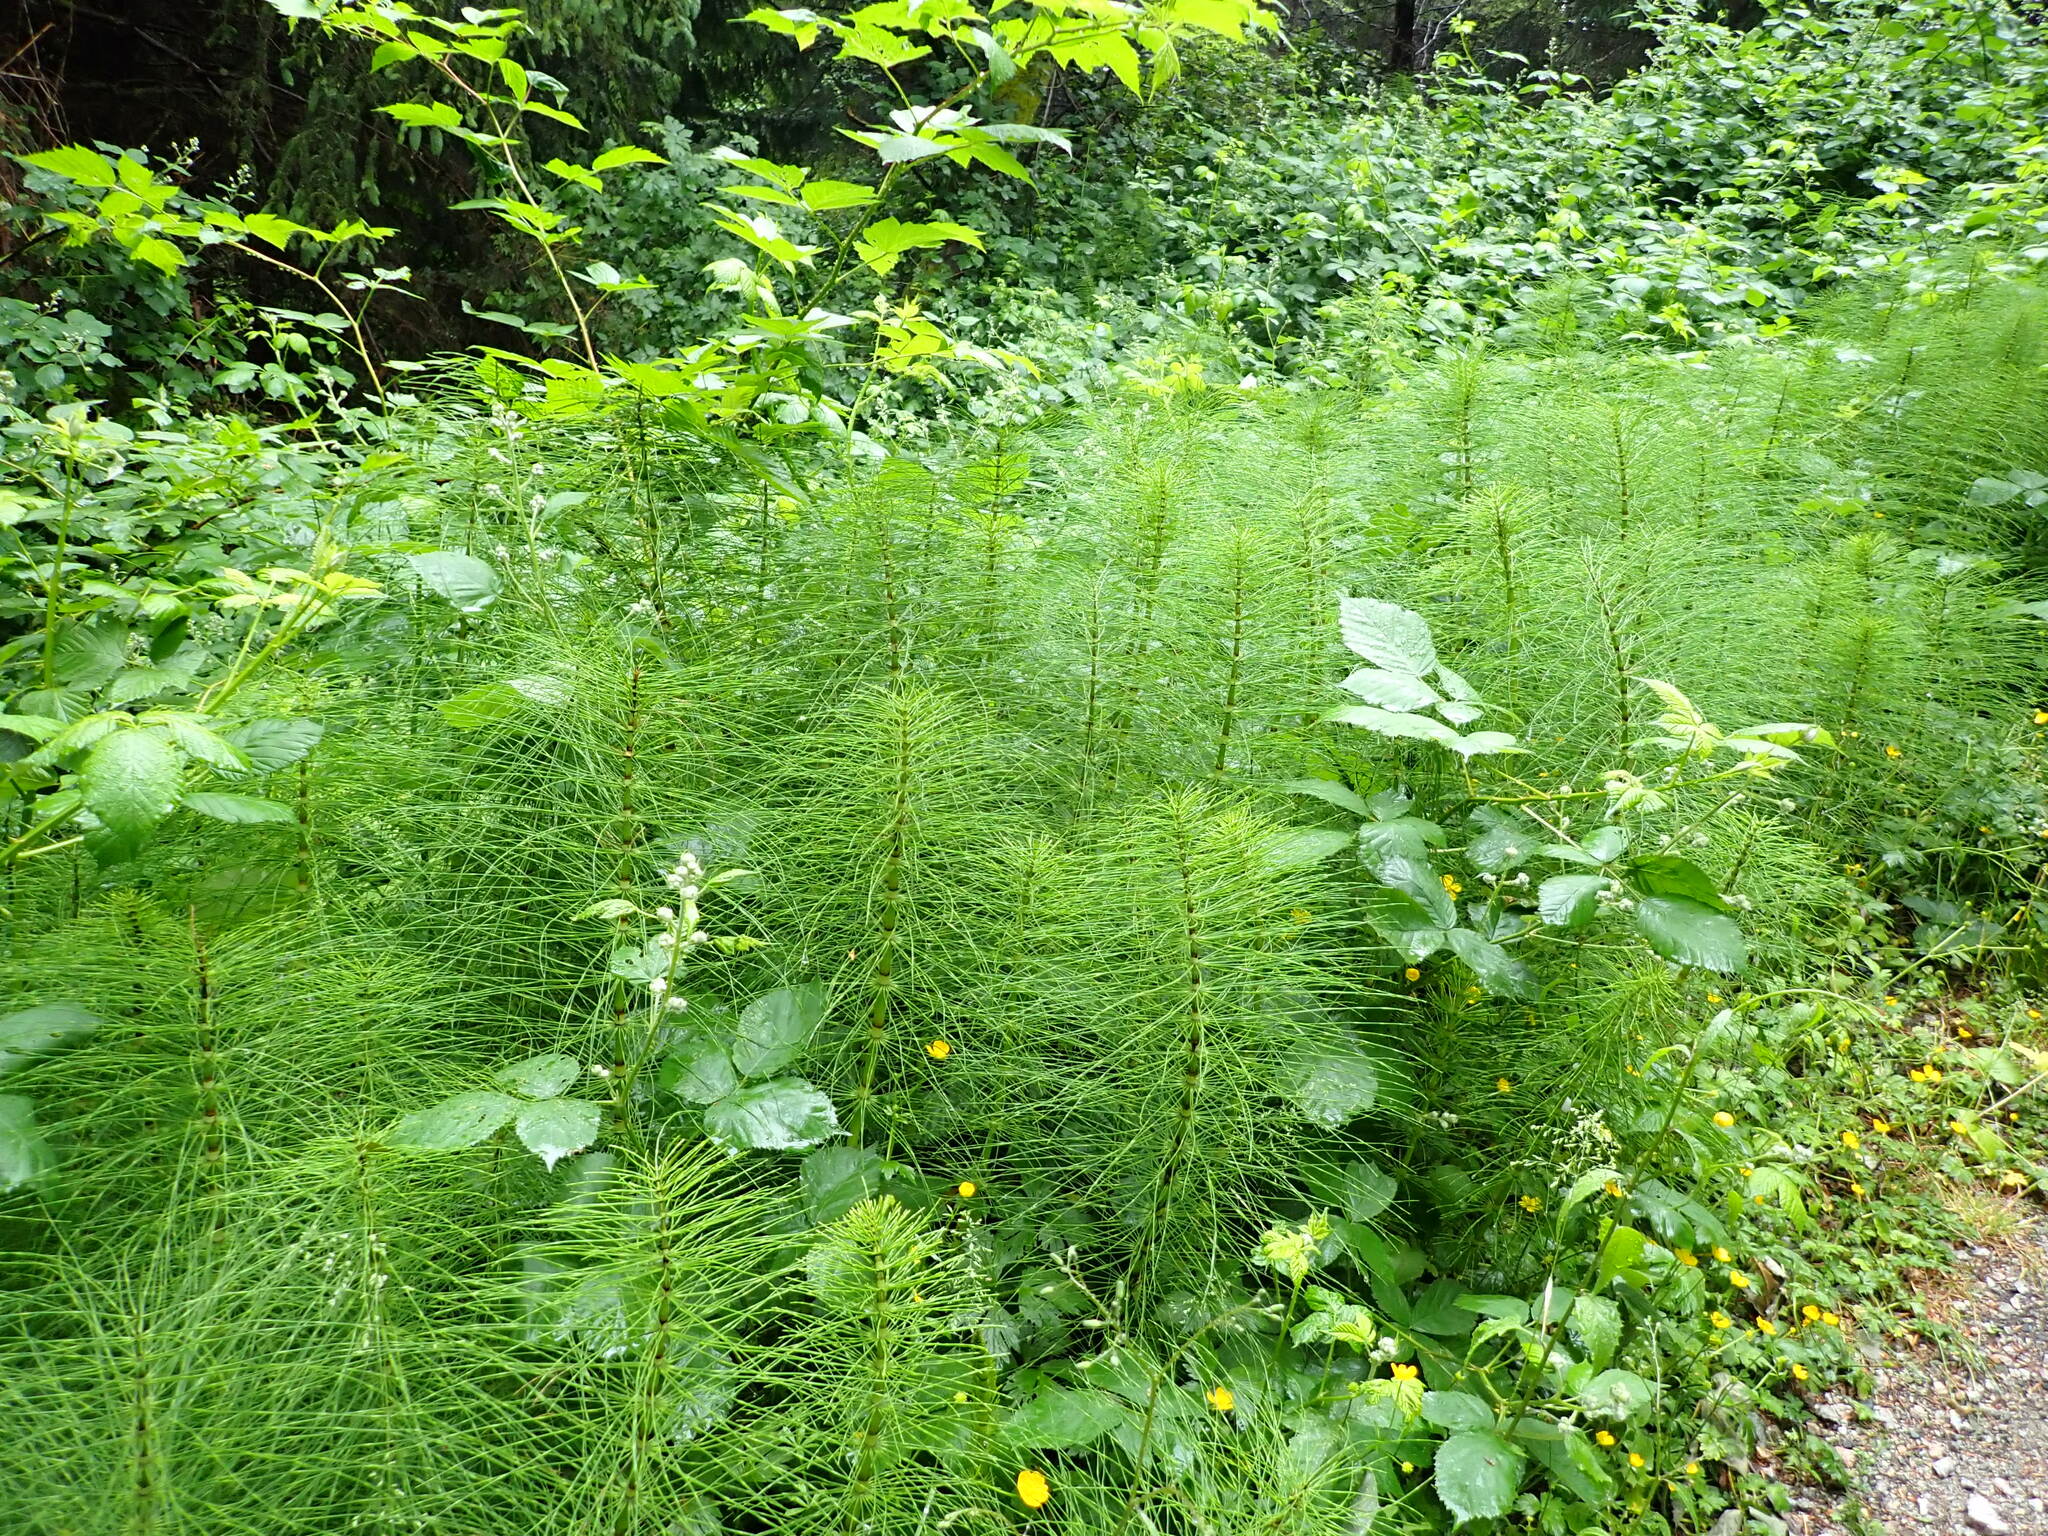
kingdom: Plantae
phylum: Tracheophyta
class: Polypodiopsida
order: Equisetales
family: Equisetaceae
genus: Equisetum
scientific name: Equisetum braunii
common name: Braun's horsetail
